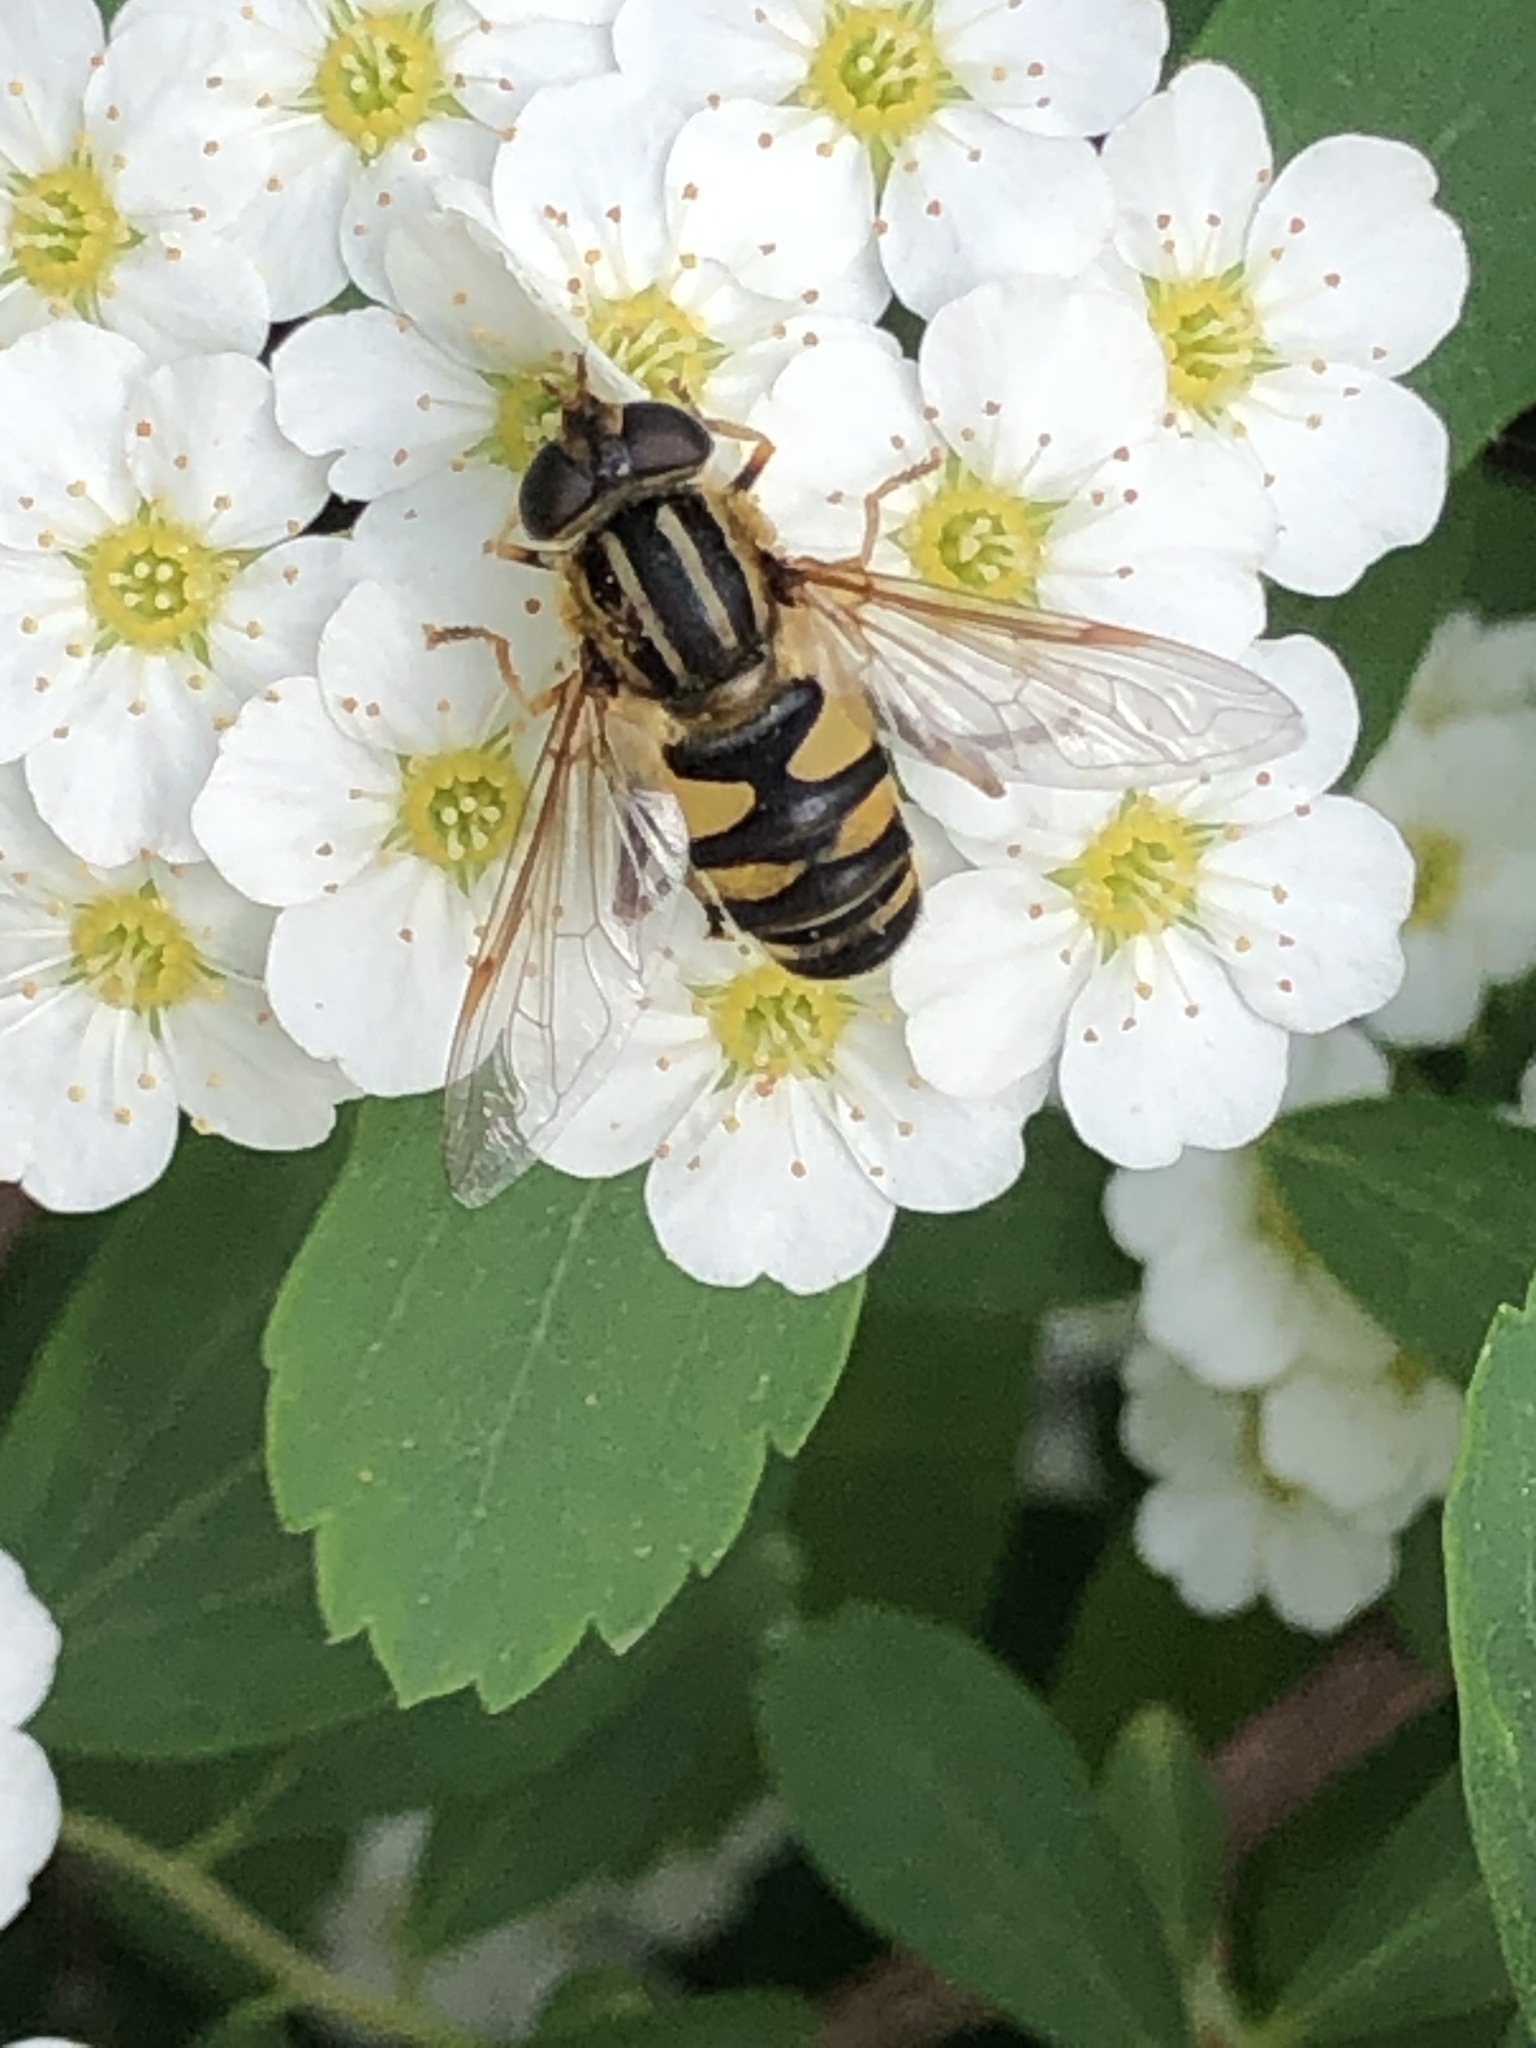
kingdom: Animalia
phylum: Arthropoda
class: Insecta
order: Diptera
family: Syrphidae
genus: Helophilus
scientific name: Helophilus fasciatus
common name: Narrow-headed marsh fly
